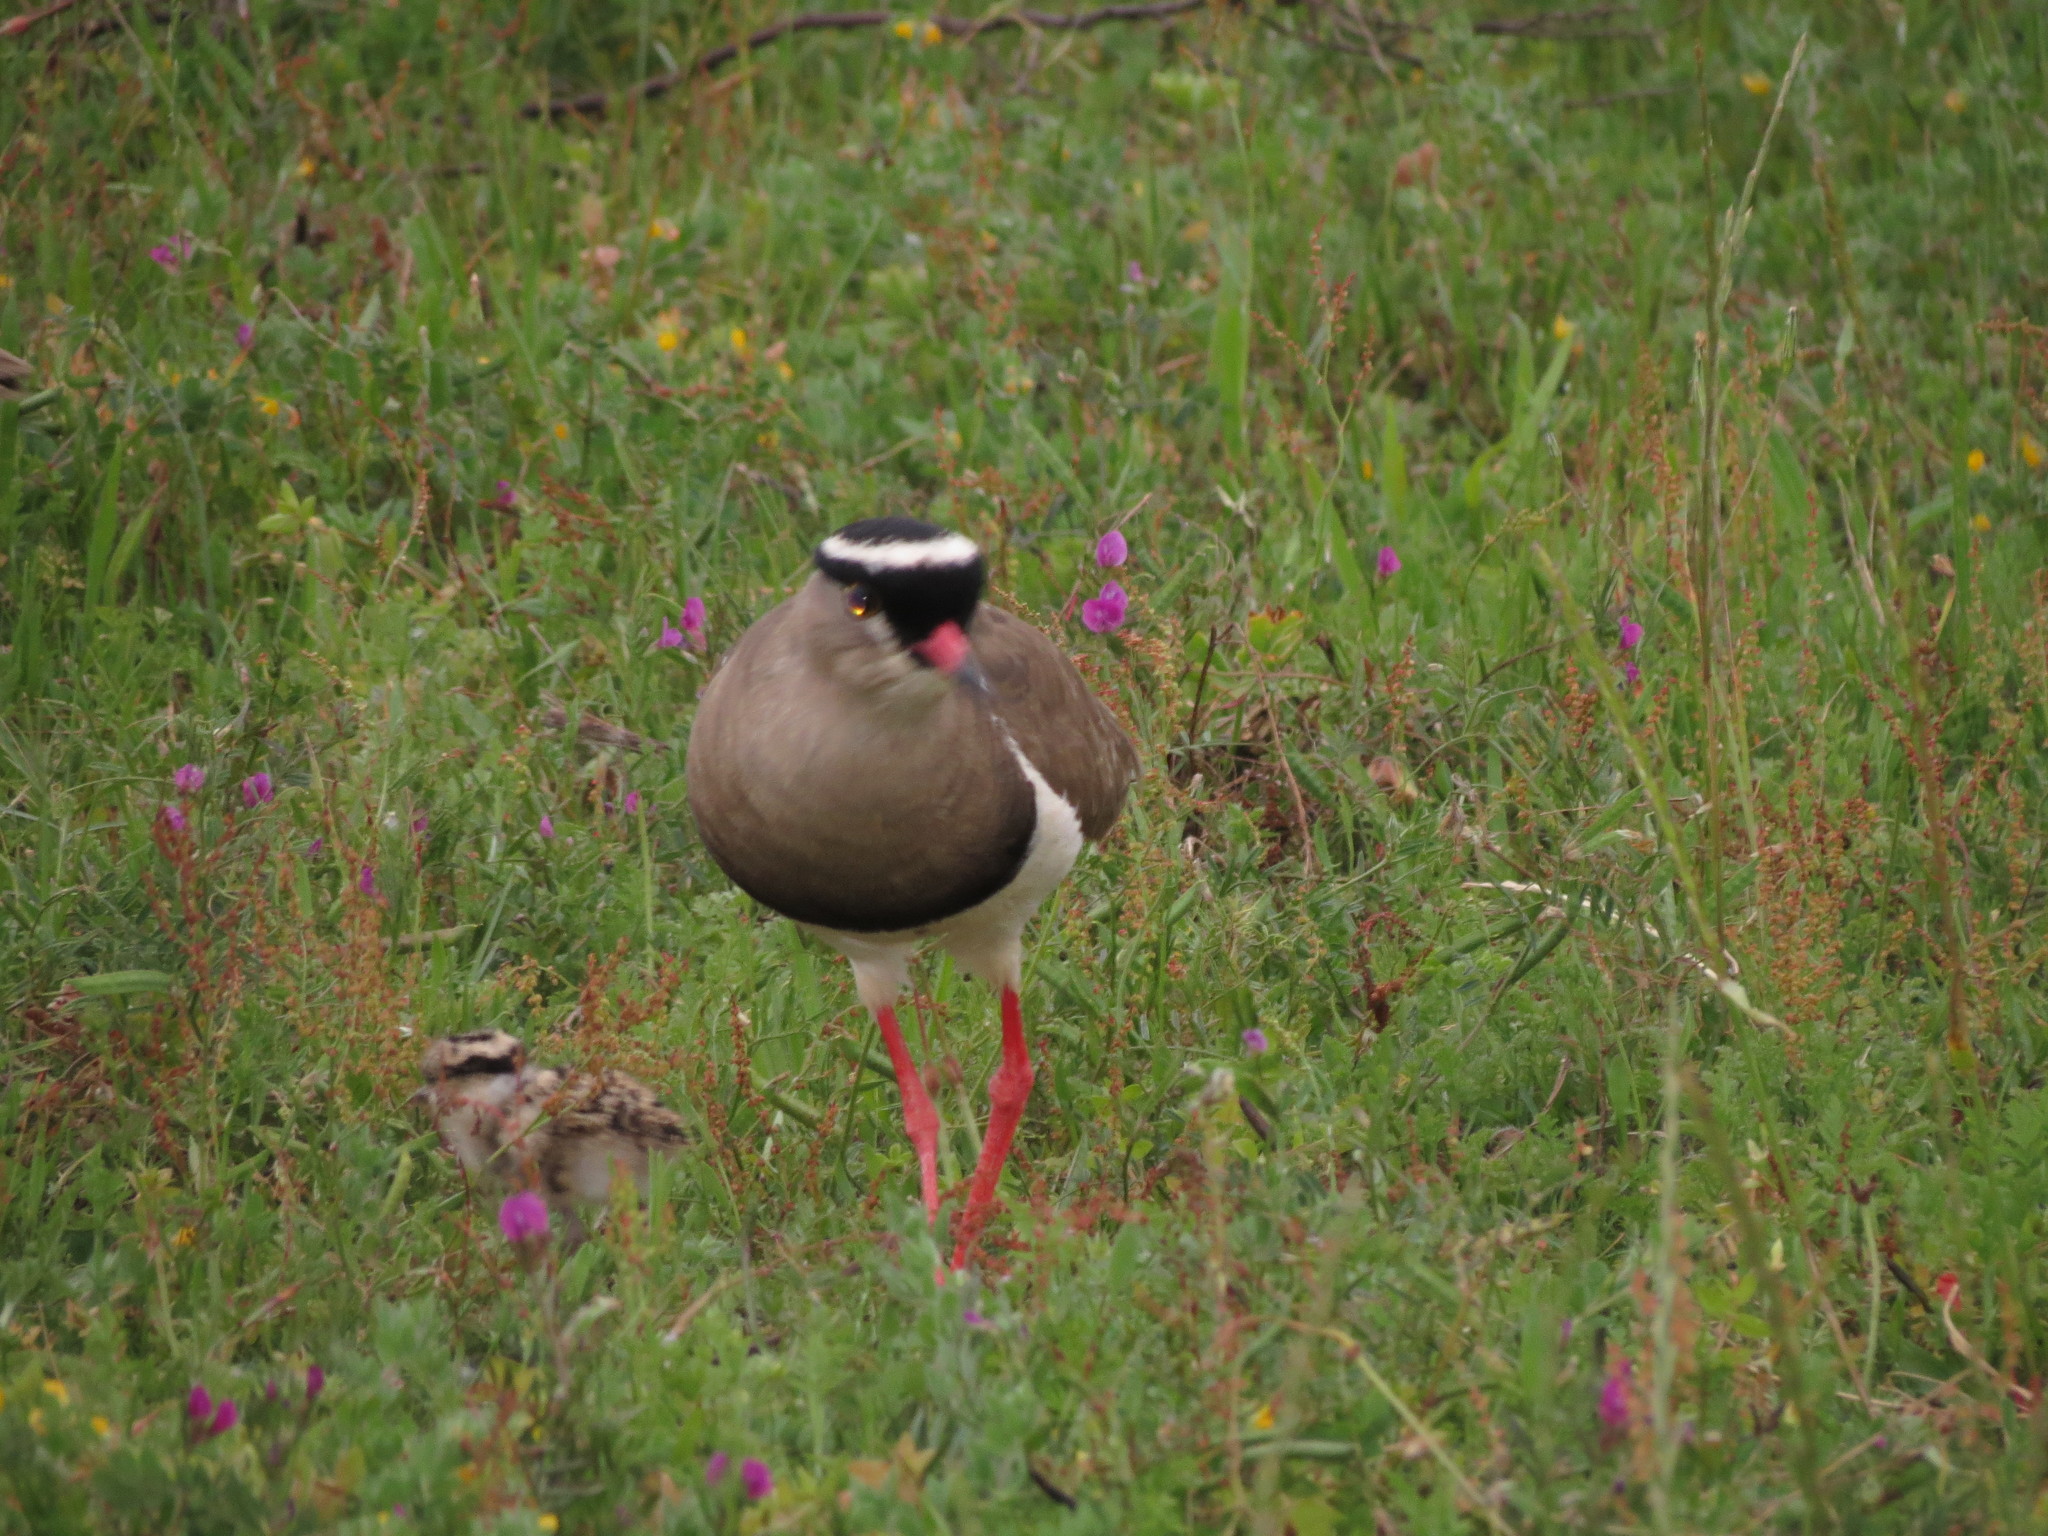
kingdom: Animalia
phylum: Chordata
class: Aves
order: Charadriiformes
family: Charadriidae
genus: Vanellus
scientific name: Vanellus coronatus
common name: Crowned lapwing
